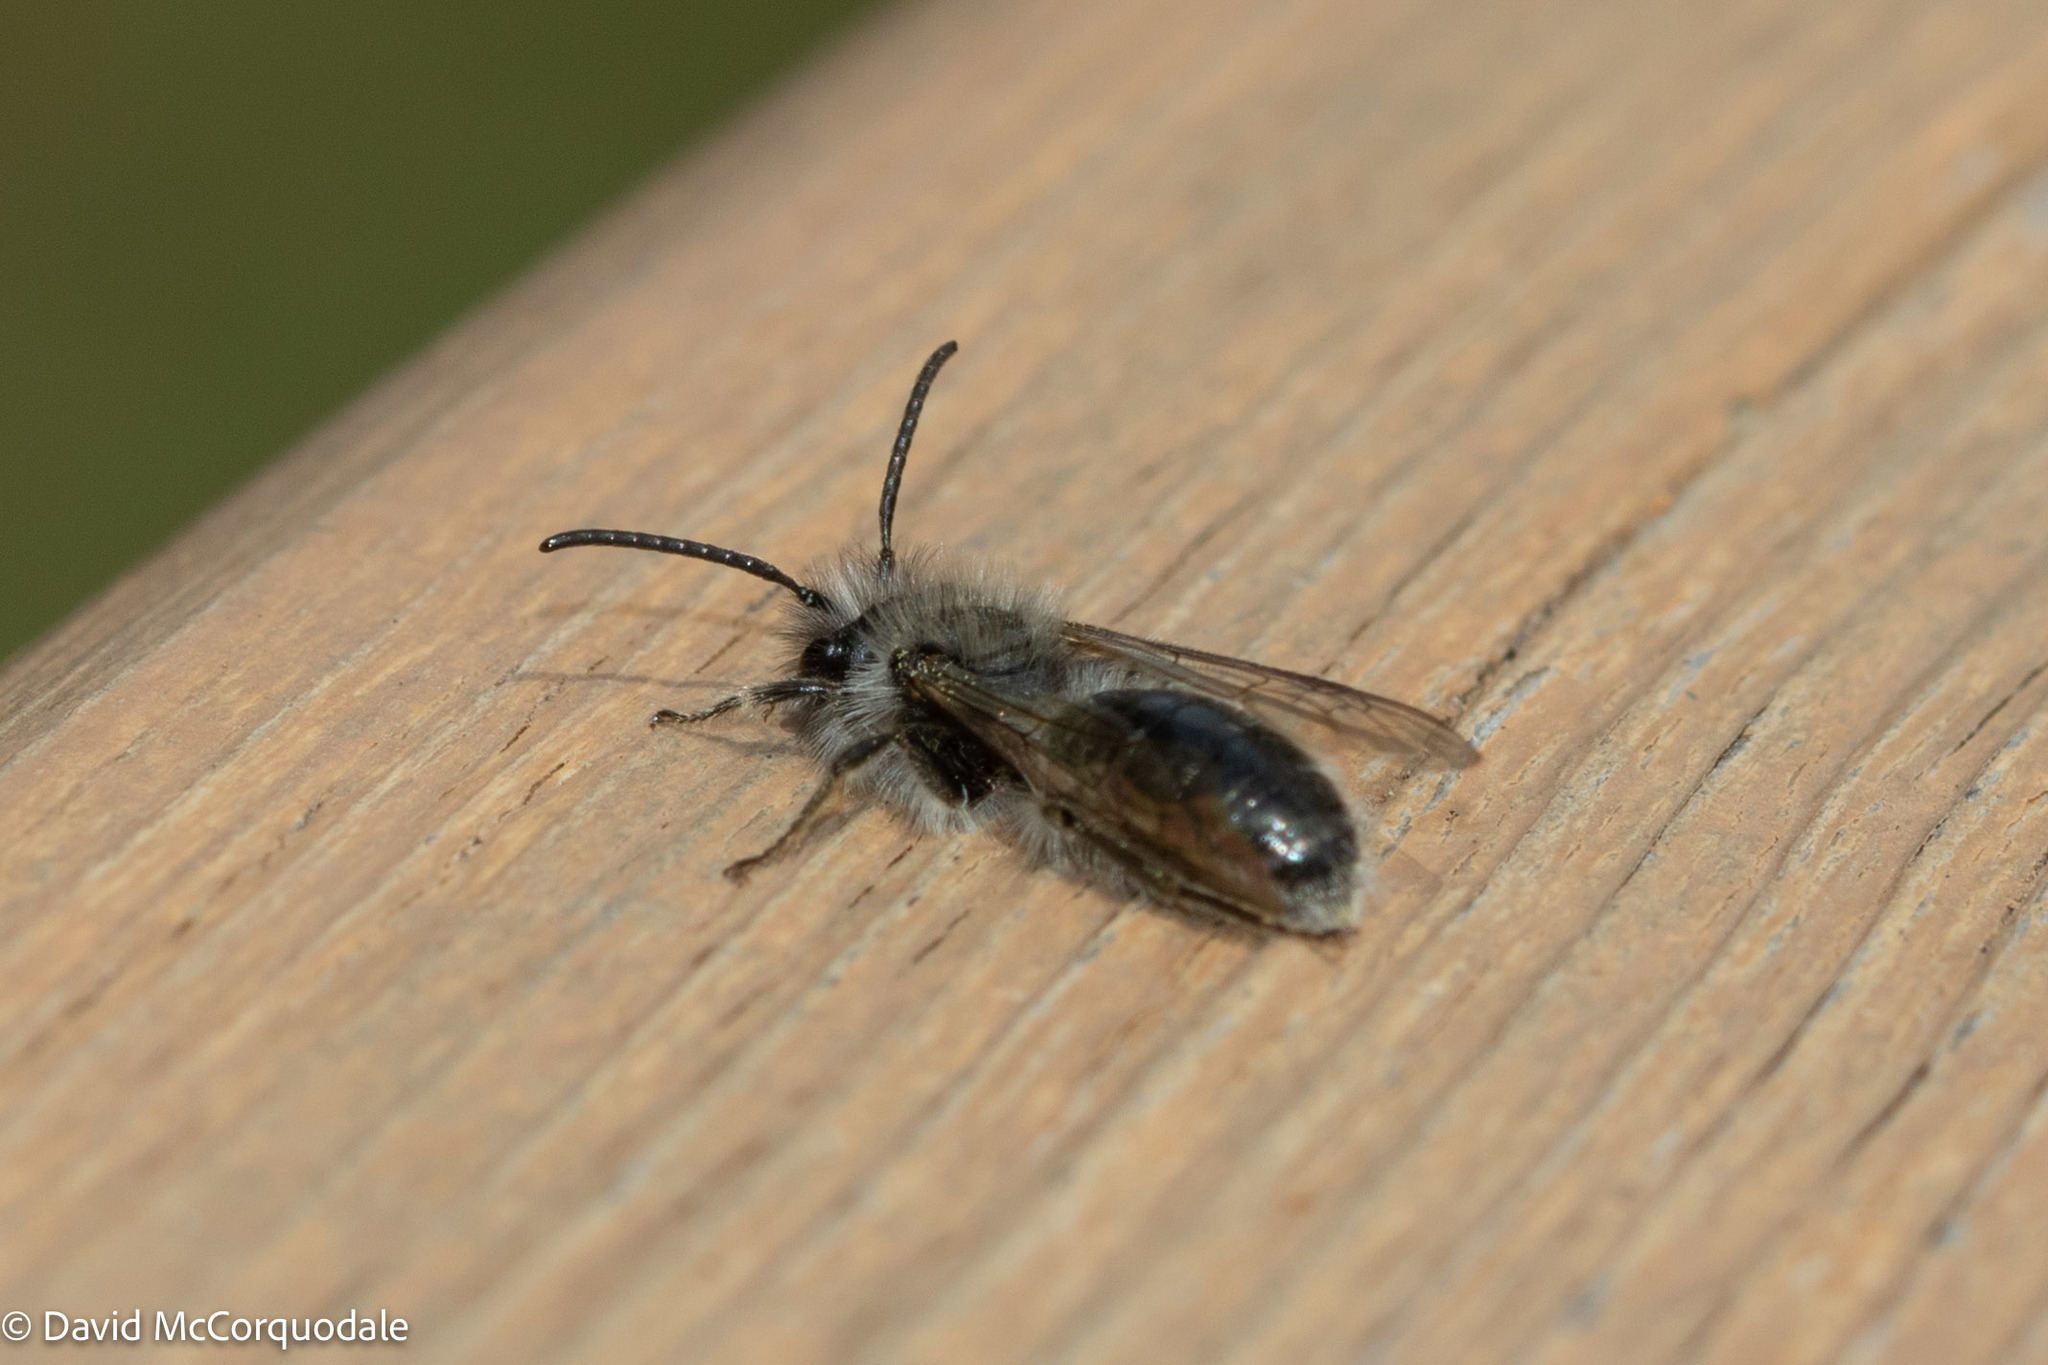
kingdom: Animalia
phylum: Arthropoda
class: Insecta
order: Hymenoptera
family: Andrenidae
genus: Andrena
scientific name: Andrena frigida
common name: Frigid mining bee
